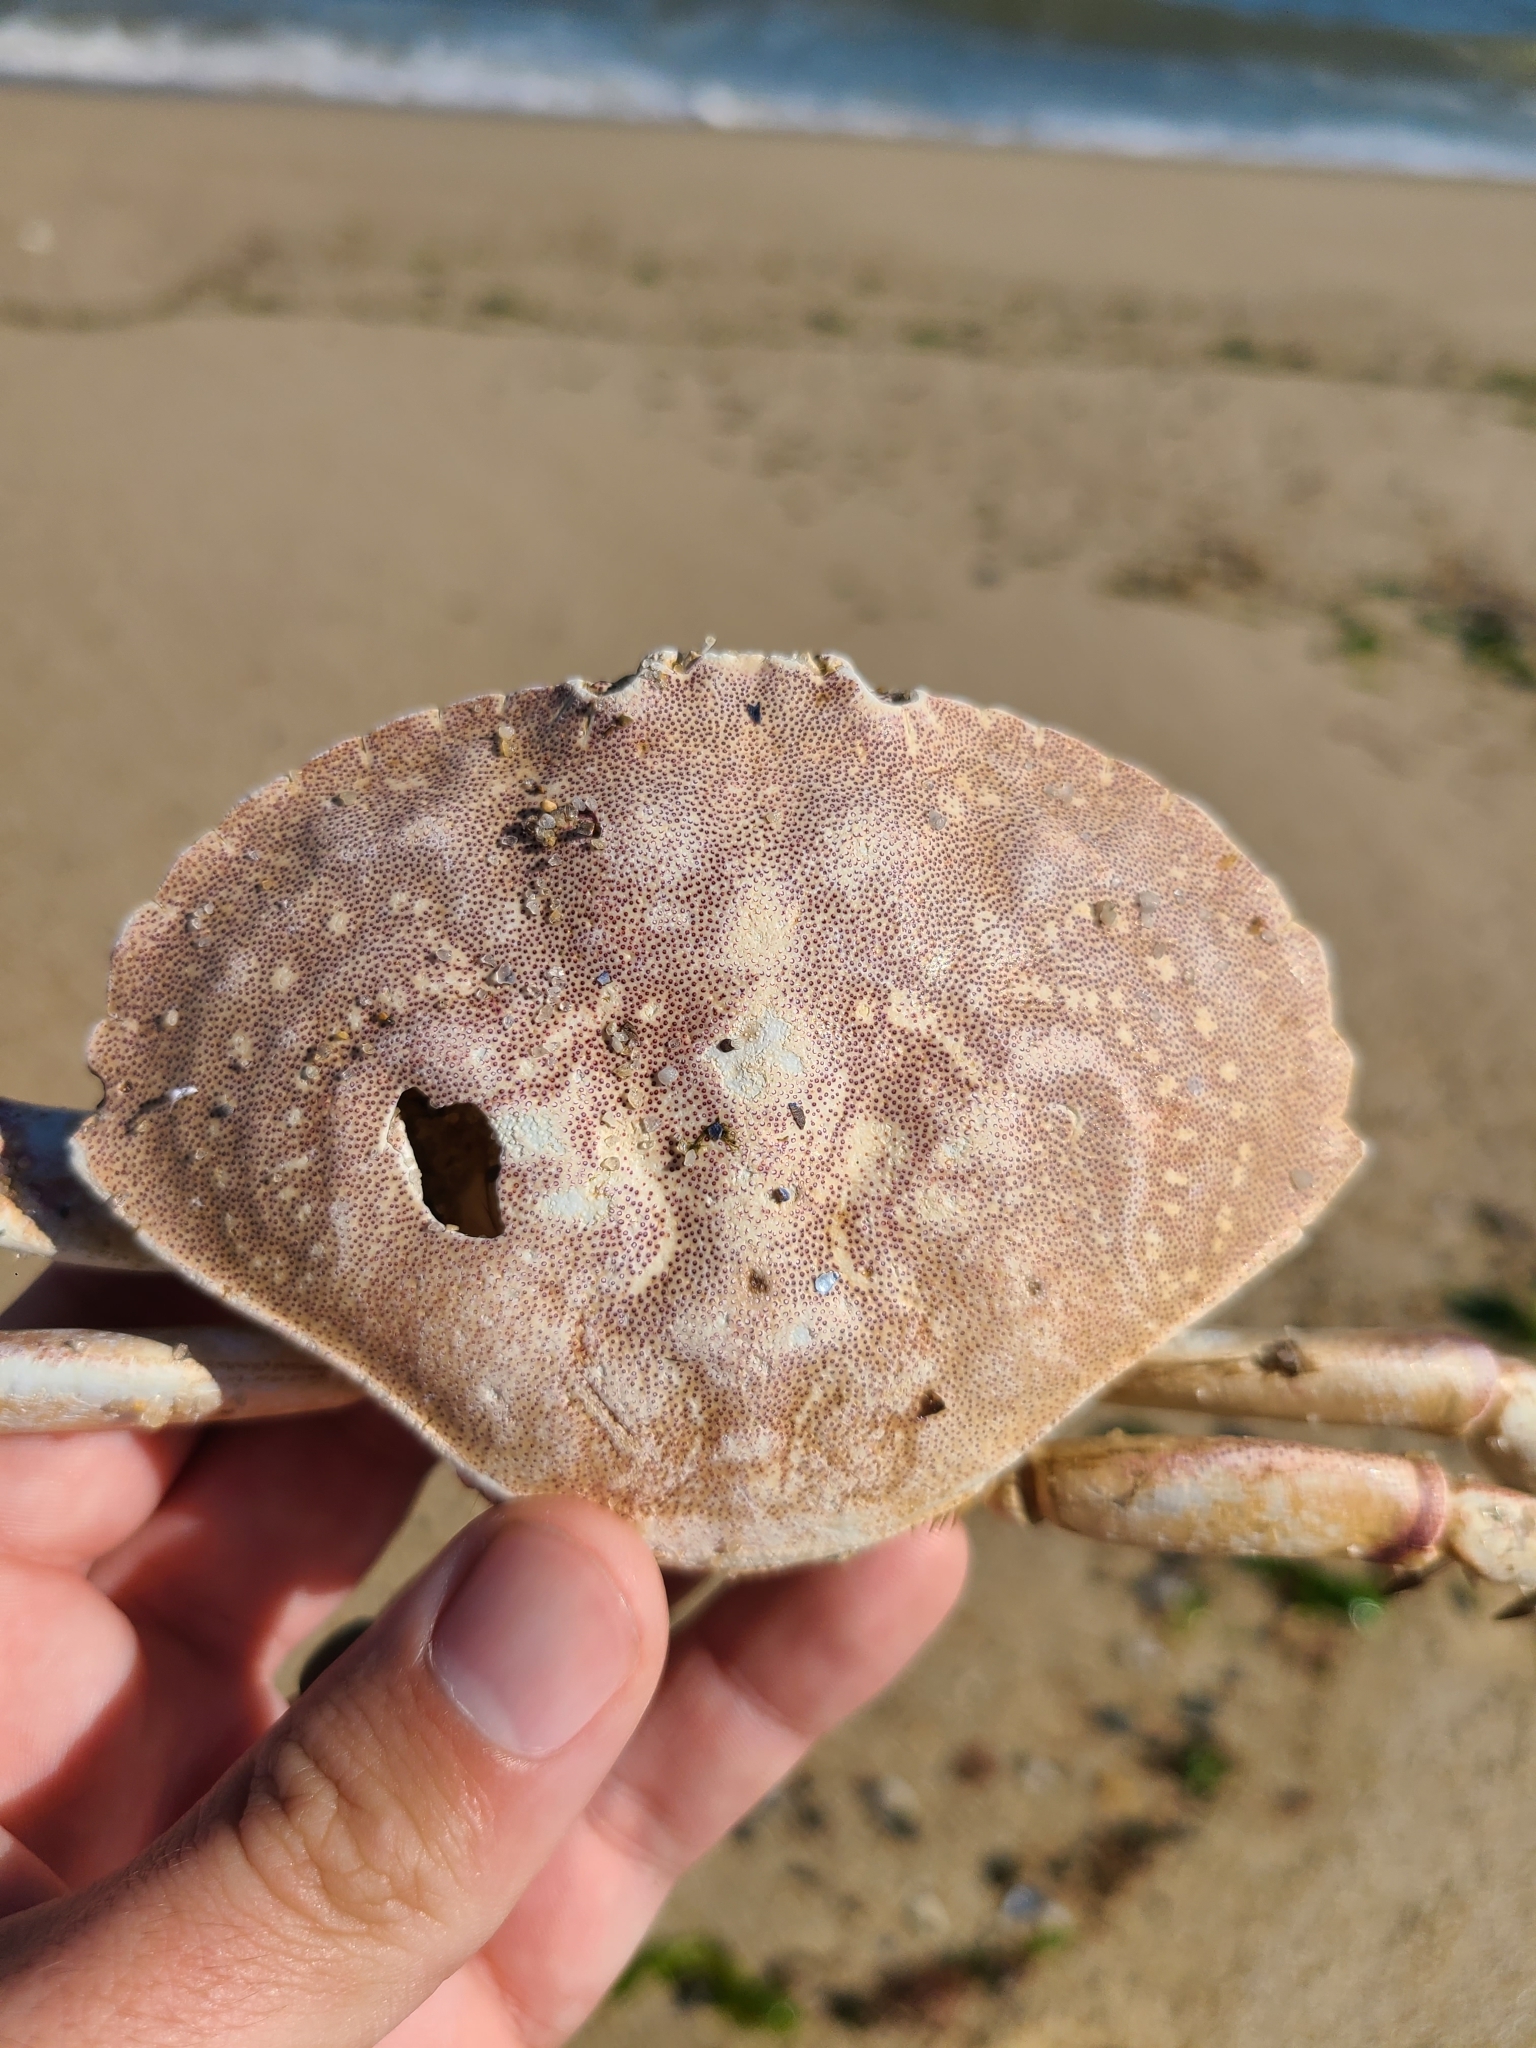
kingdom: Animalia
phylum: Arthropoda
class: Malacostraca
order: Decapoda
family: Cancridae
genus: Cancer
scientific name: Cancer irroratus
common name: Atlantic rock crab
